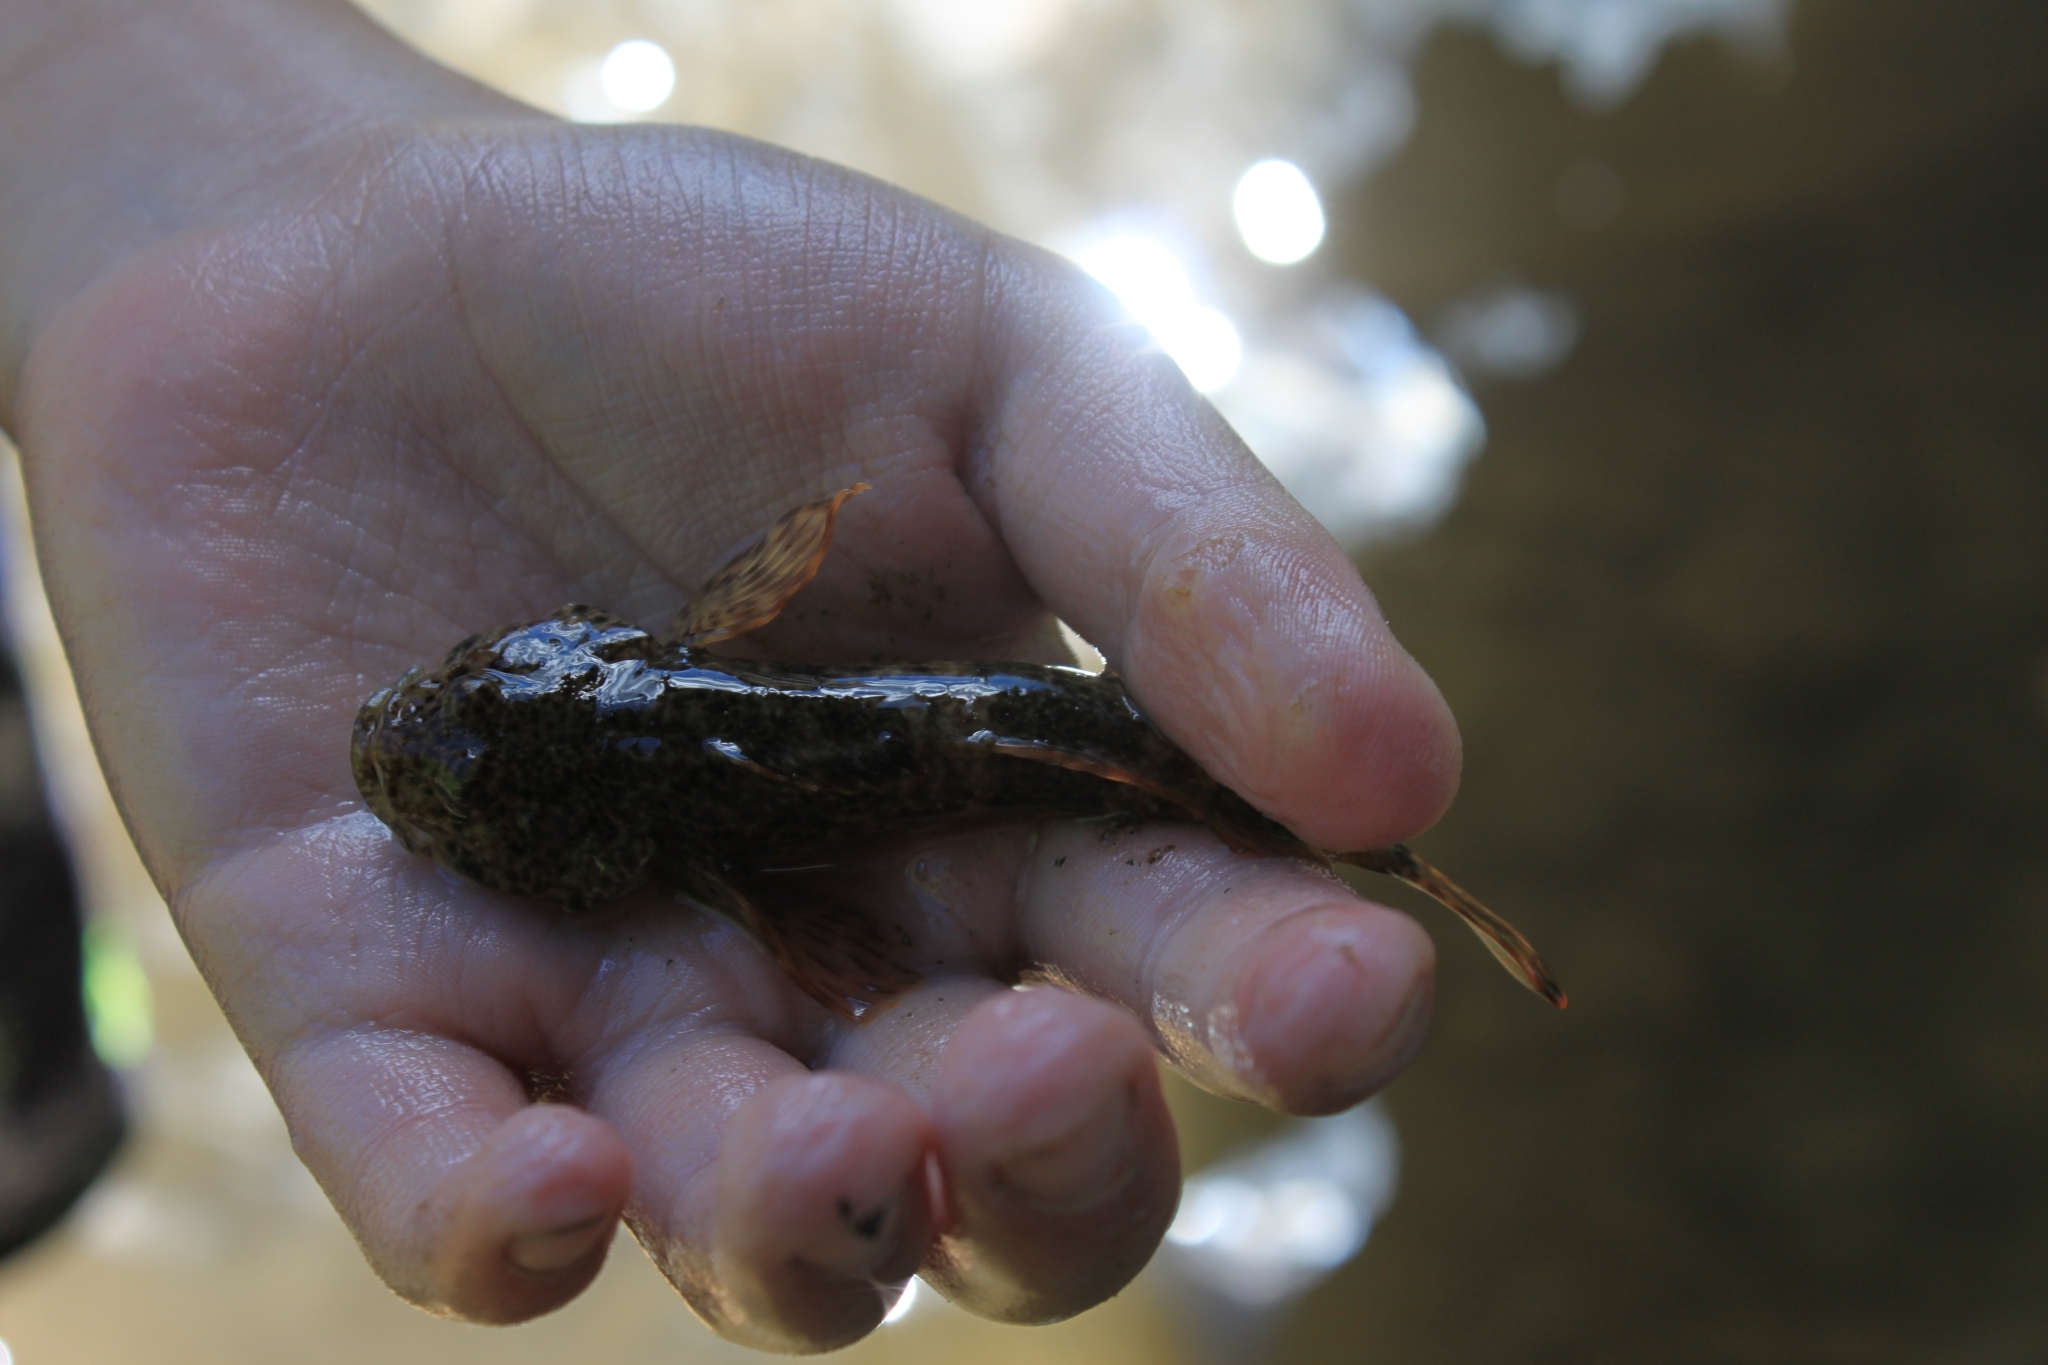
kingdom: Animalia
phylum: Chordata
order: Scorpaeniformes
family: Cottidae
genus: Cottus
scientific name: Cottus bairdii
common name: Mottled sculpin
